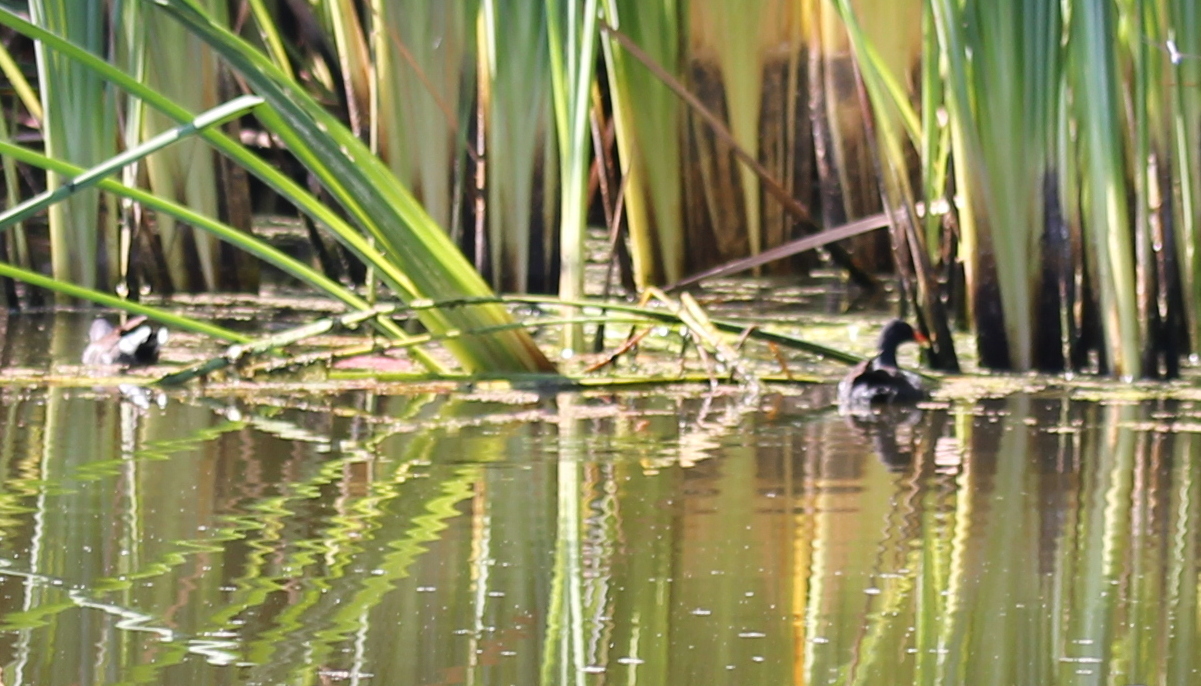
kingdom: Animalia
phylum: Chordata
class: Aves
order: Gruiformes
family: Rallidae
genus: Gallinula
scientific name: Gallinula chloropus
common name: Common moorhen
